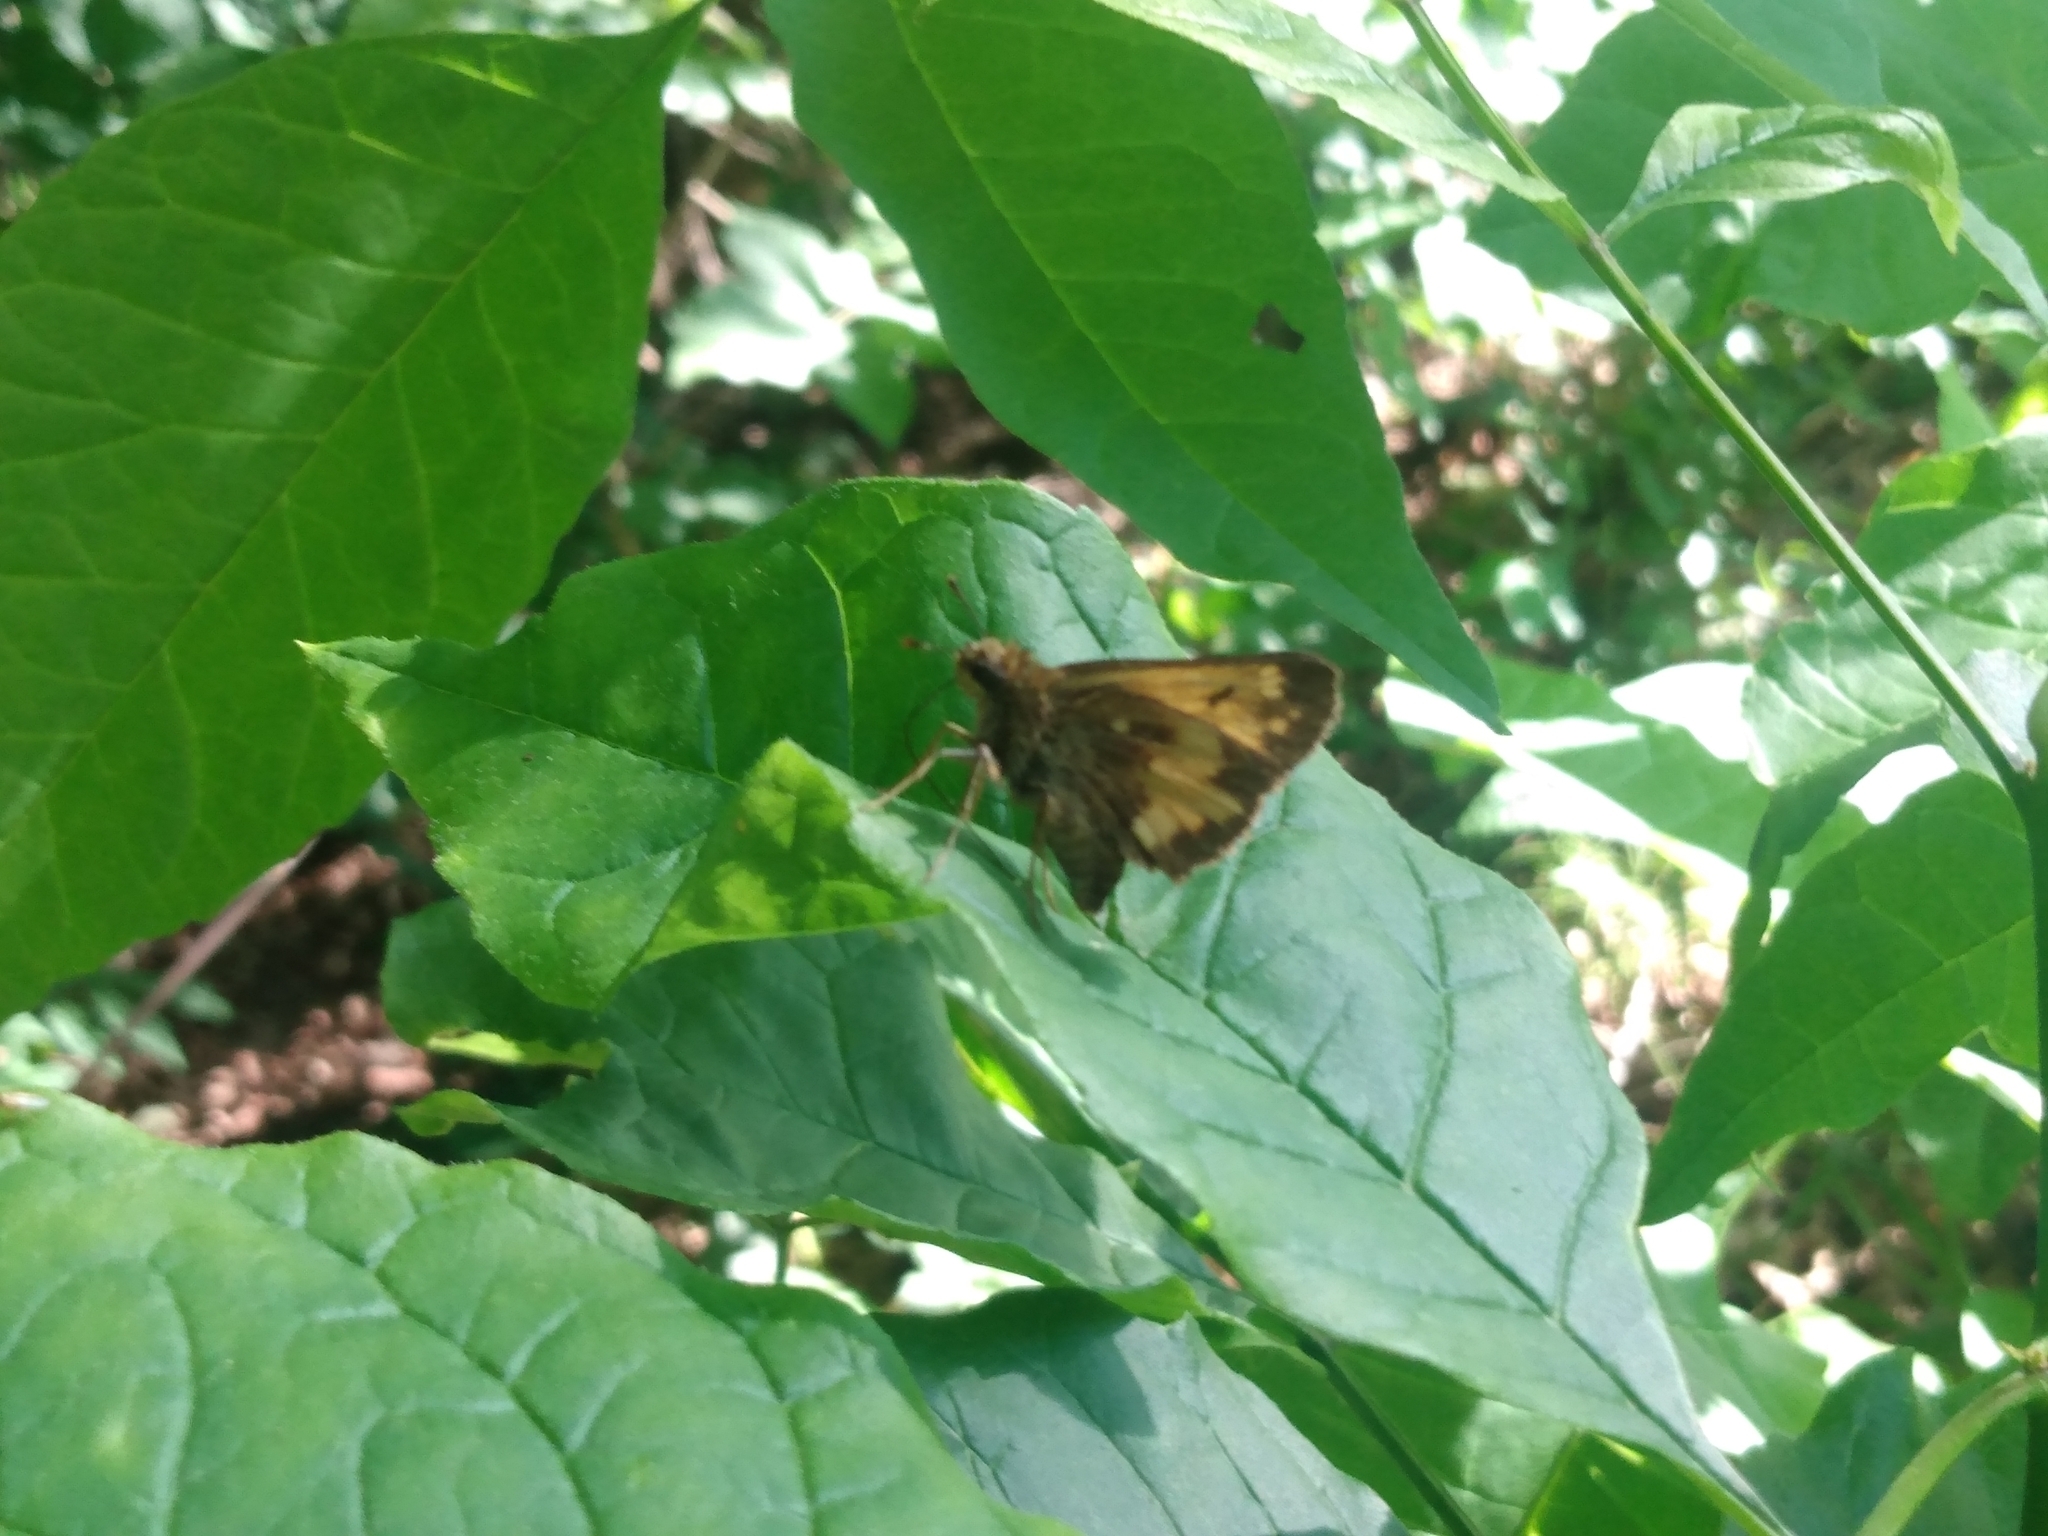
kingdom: Animalia
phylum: Arthropoda
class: Insecta
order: Lepidoptera
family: Hesperiidae
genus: Lon
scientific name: Lon hobomok
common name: Hobomok skipper
